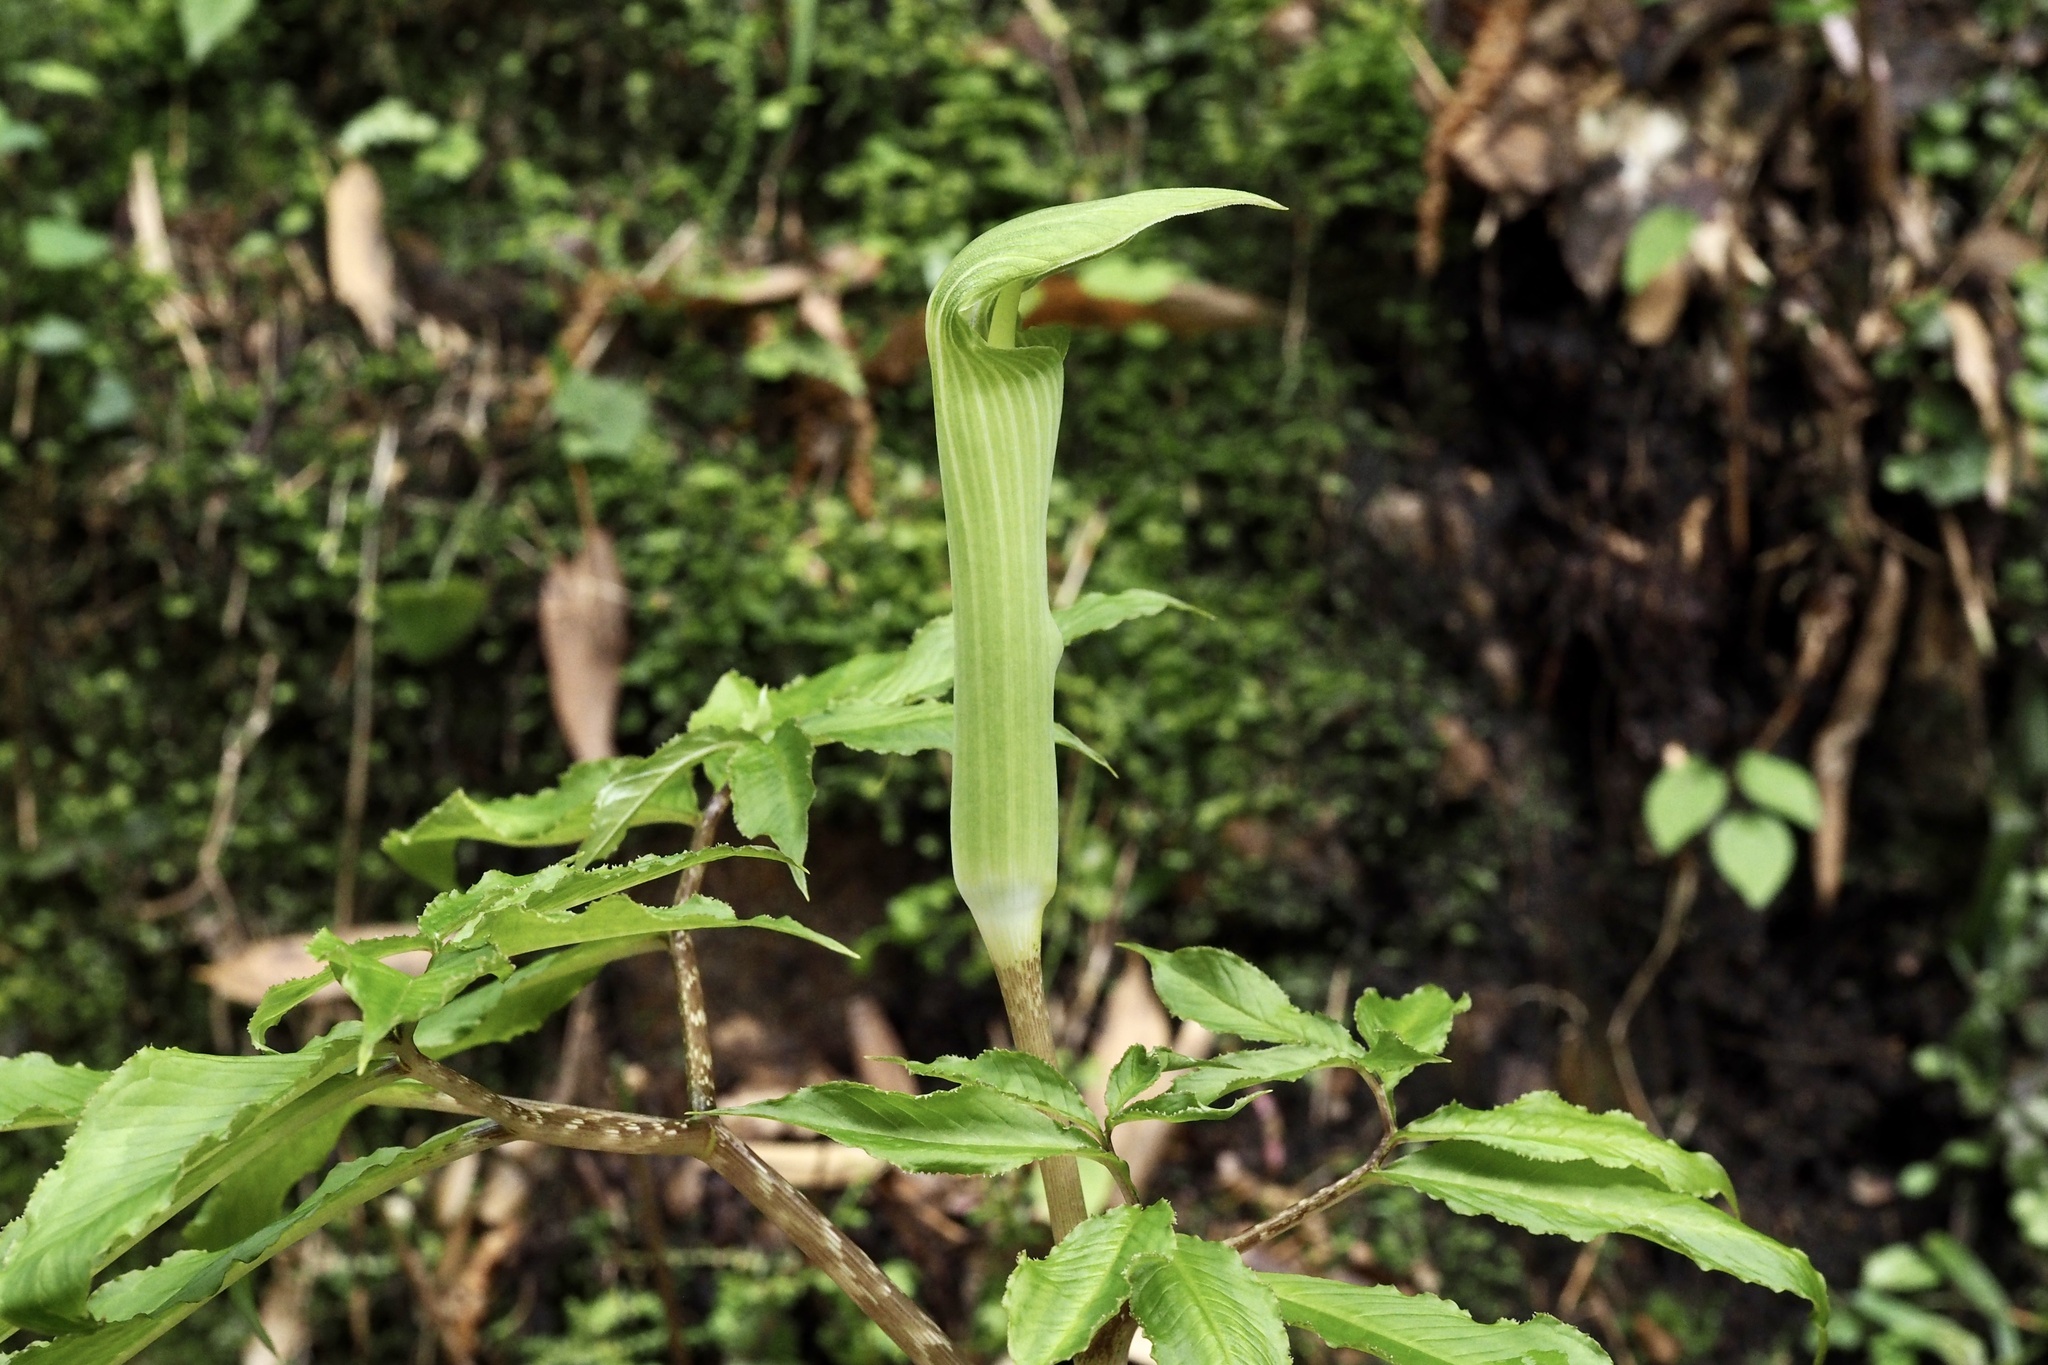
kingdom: Plantae
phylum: Tracheophyta
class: Liliopsida
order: Alismatales
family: Araceae
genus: Arisaema
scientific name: Arisaema yamatense
